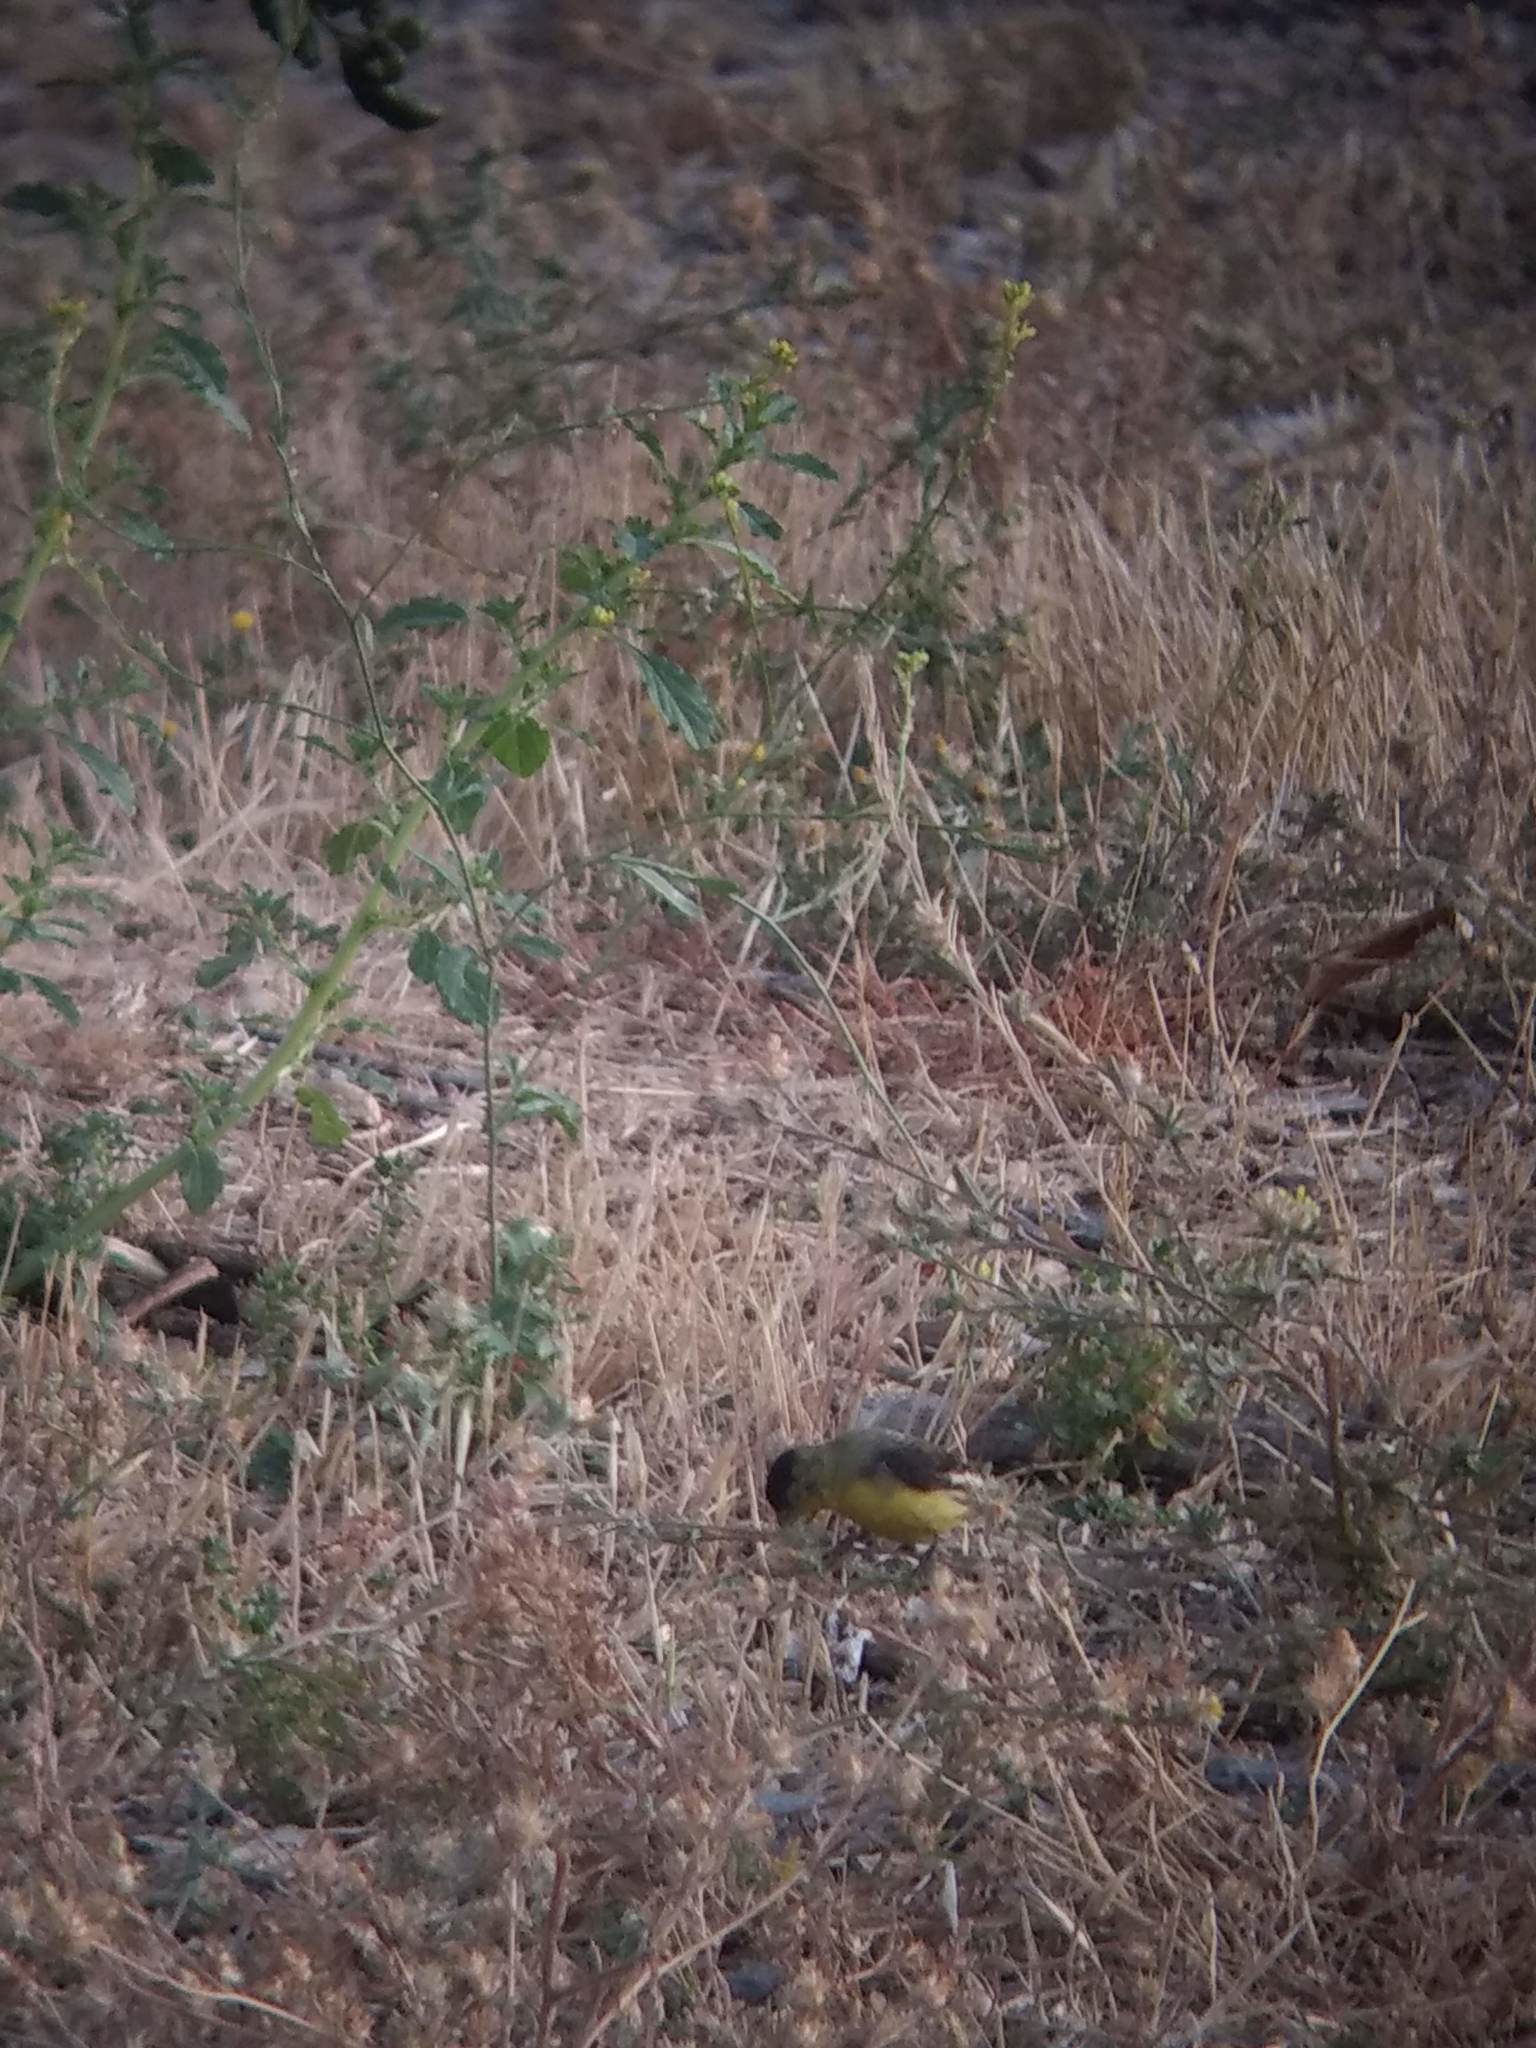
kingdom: Animalia
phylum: Chordata
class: Aves
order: Passeriformes
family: Fringillidae
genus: Spinus
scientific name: Spinus psaltria
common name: Lesser goldfinch
